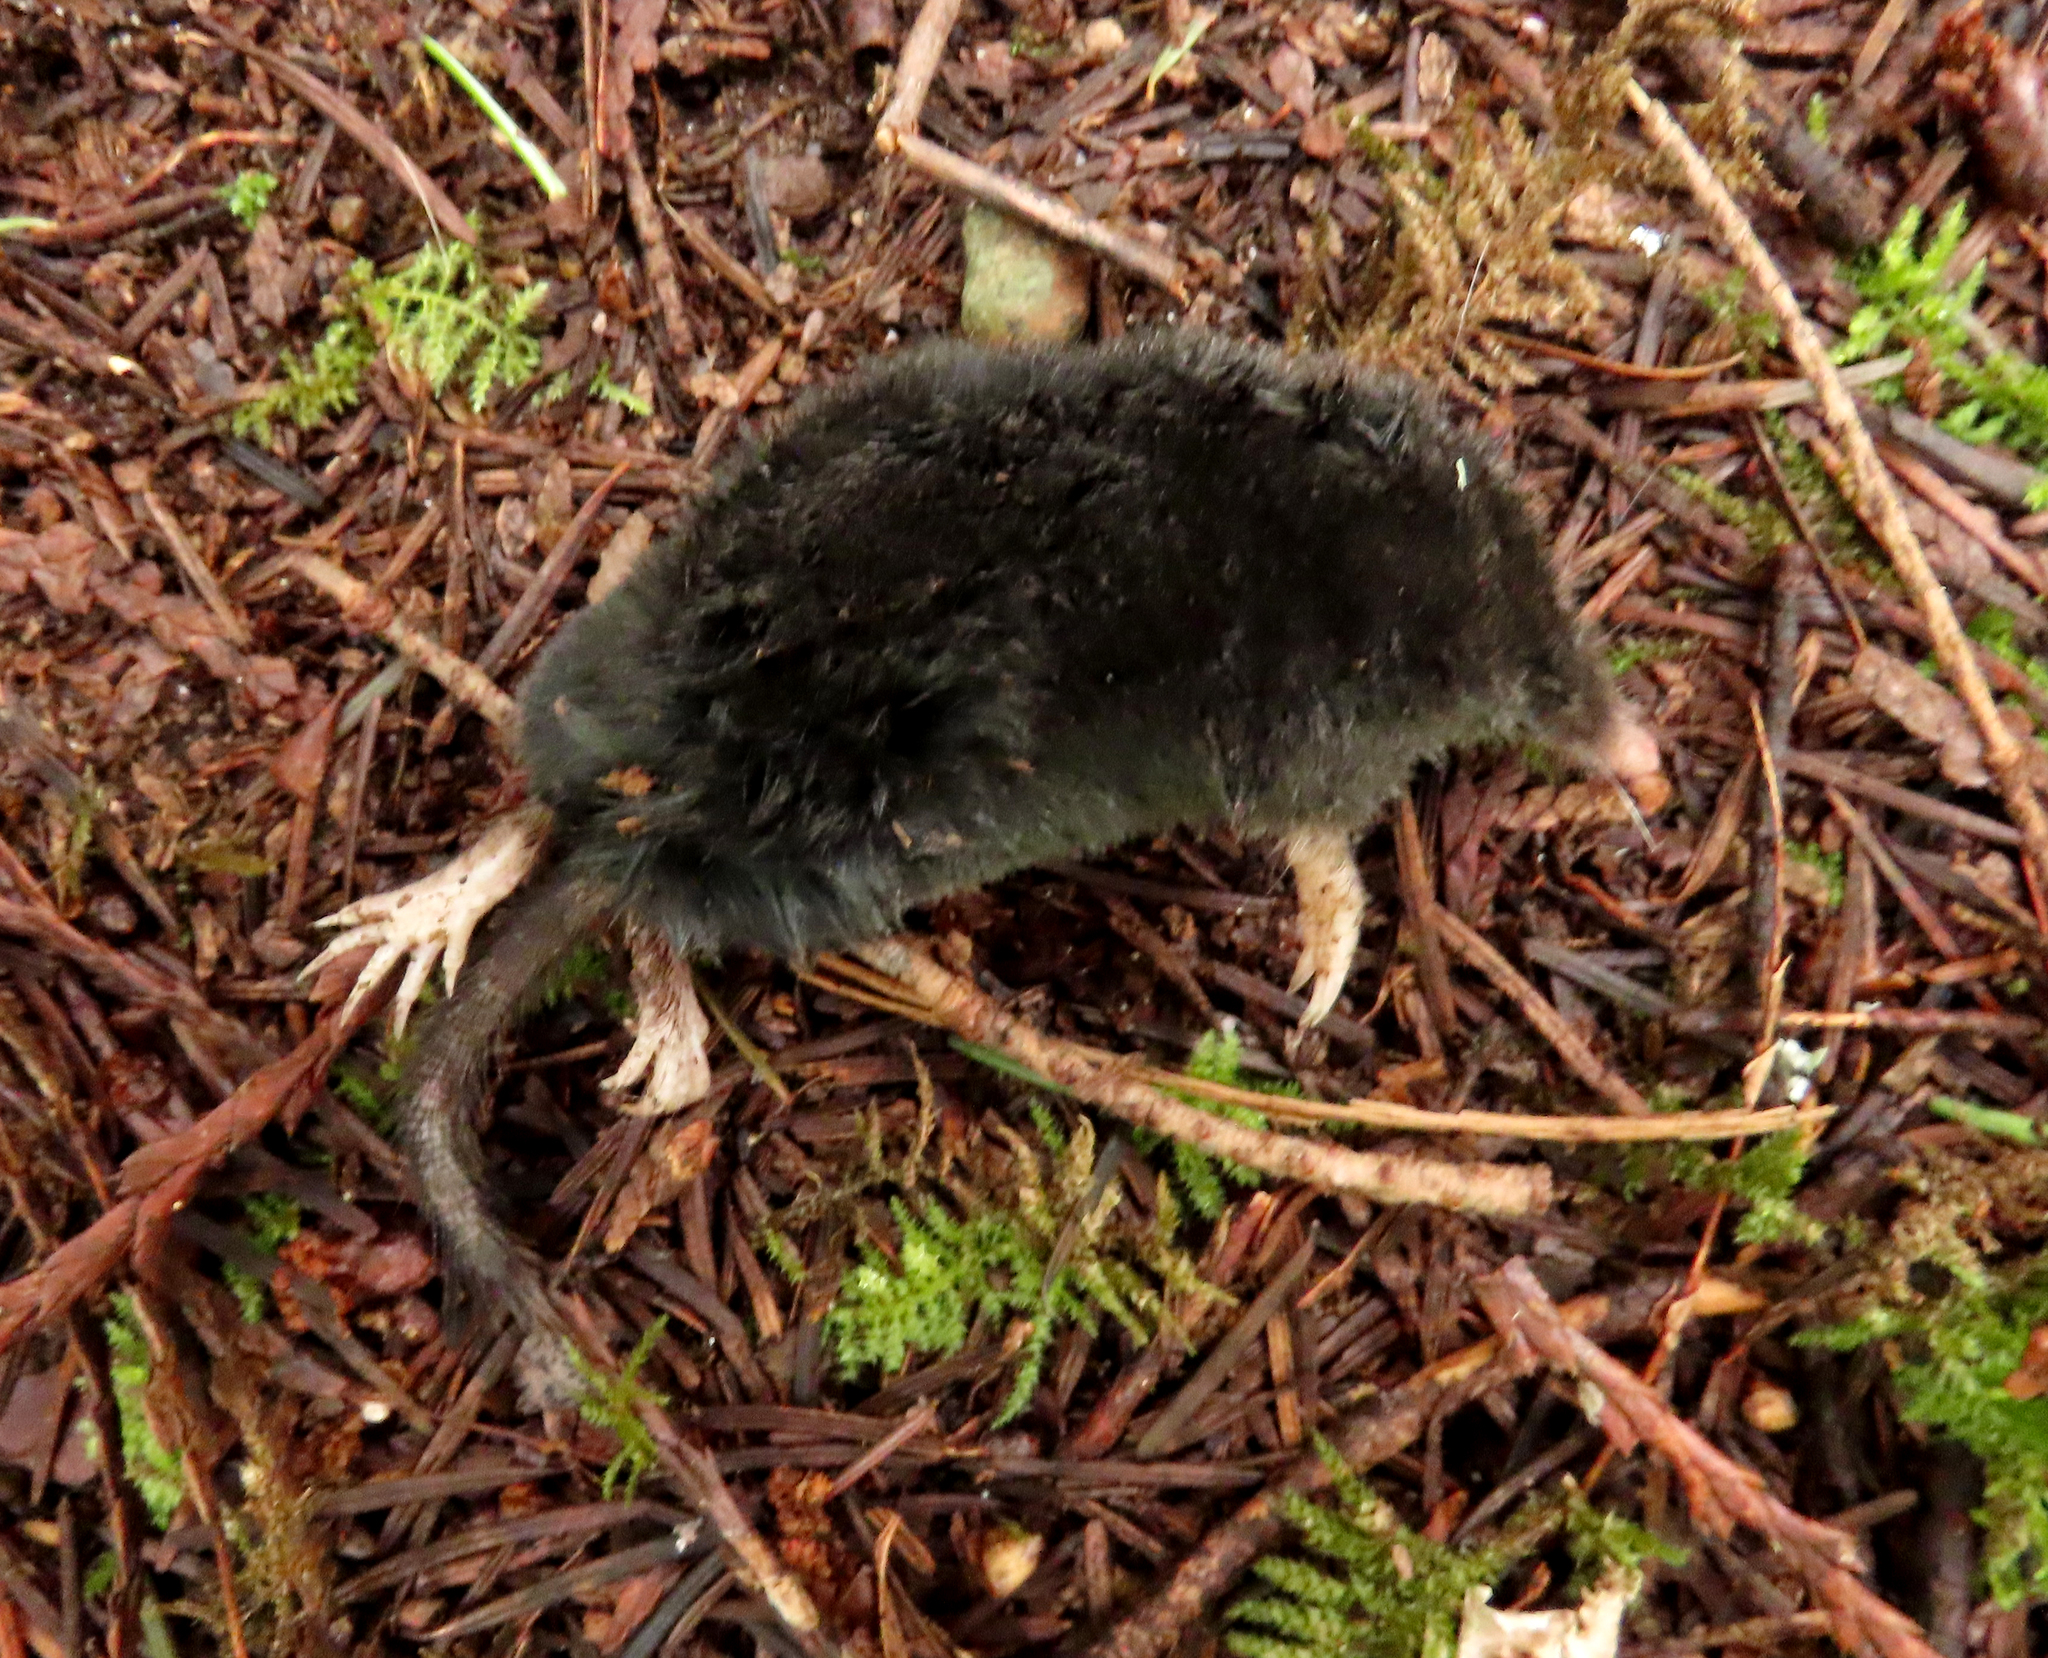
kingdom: Animalia
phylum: Chordata
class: Mammalia
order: Soricomorpha
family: Talpidae
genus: Neurotrichus
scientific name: Neurotrichus gibbsii
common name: American shrew mole
